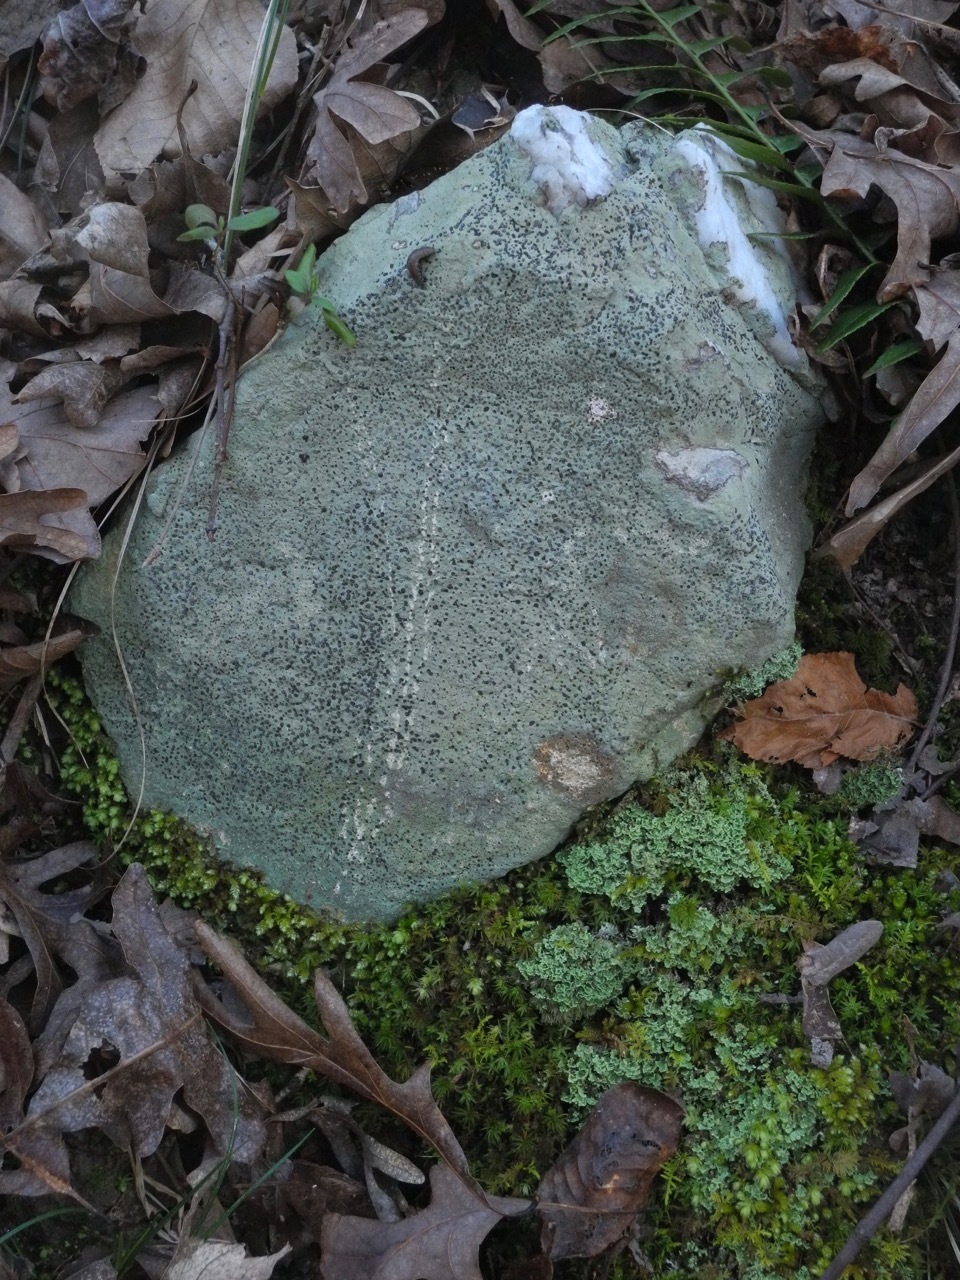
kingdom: Fungi
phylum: Ascomycota
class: Lecanoromycetes
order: Lecideales
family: Lecideaceae
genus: Porpidia
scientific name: Porpidia albocaerulescens
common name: Smokey-eyed boulder lichen
